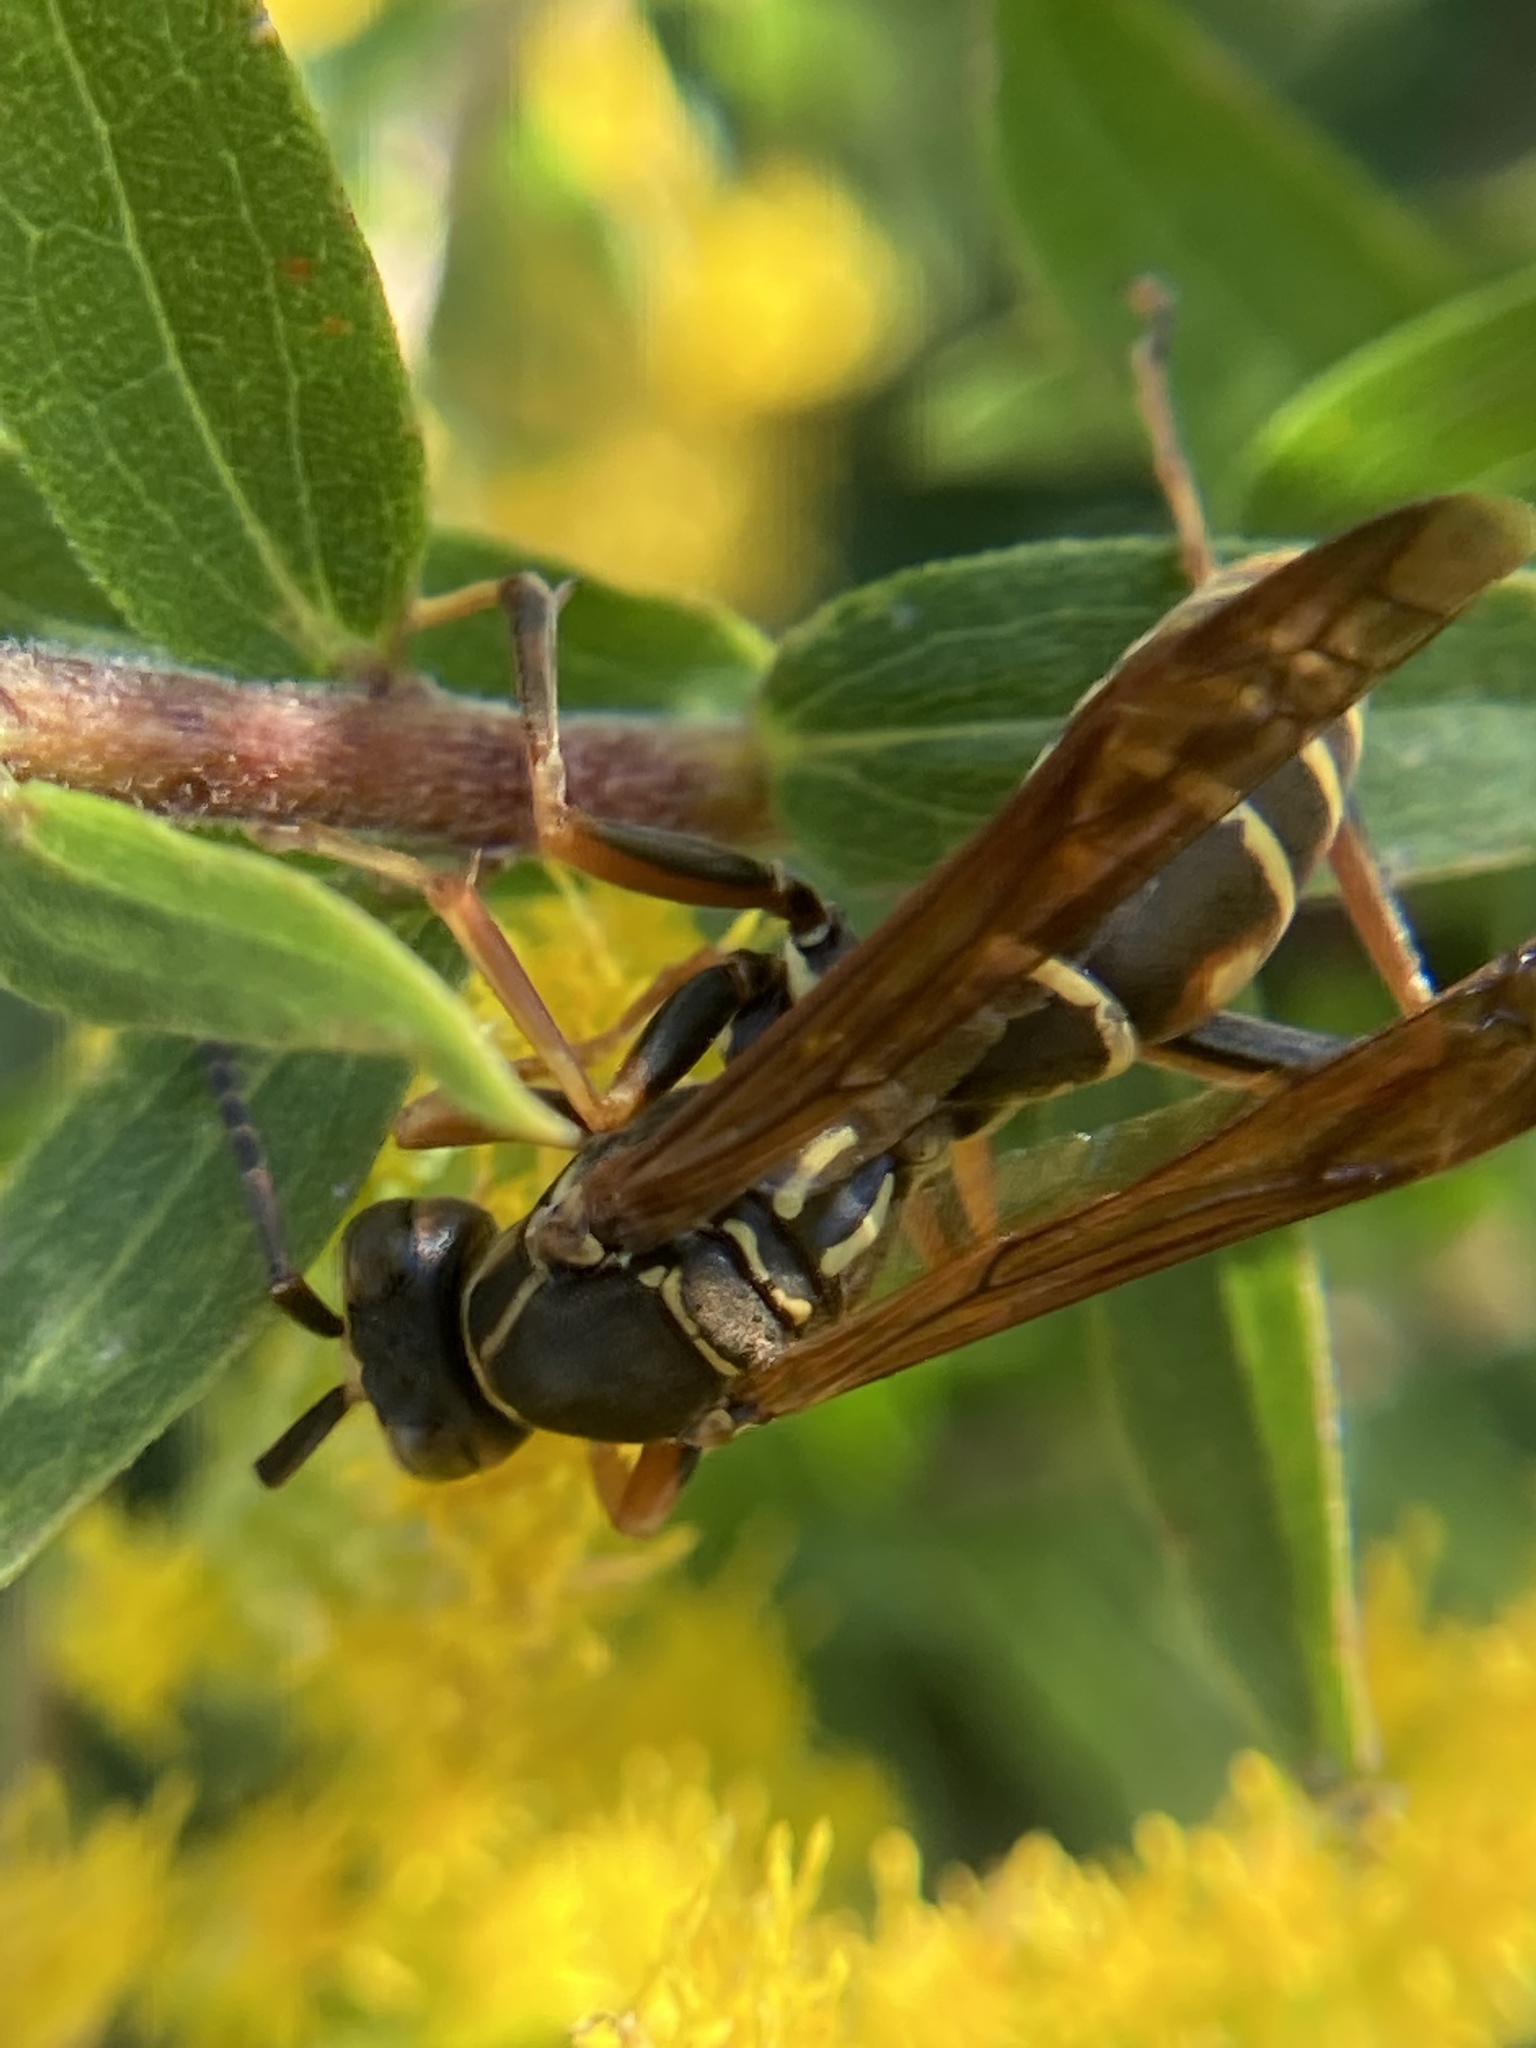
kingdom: Animalia
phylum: Arthropoda
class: Insecta
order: Hymenoptera
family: Eumenidae
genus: Polistes
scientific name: Polistes fuscatus
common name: Dark paper wasp
